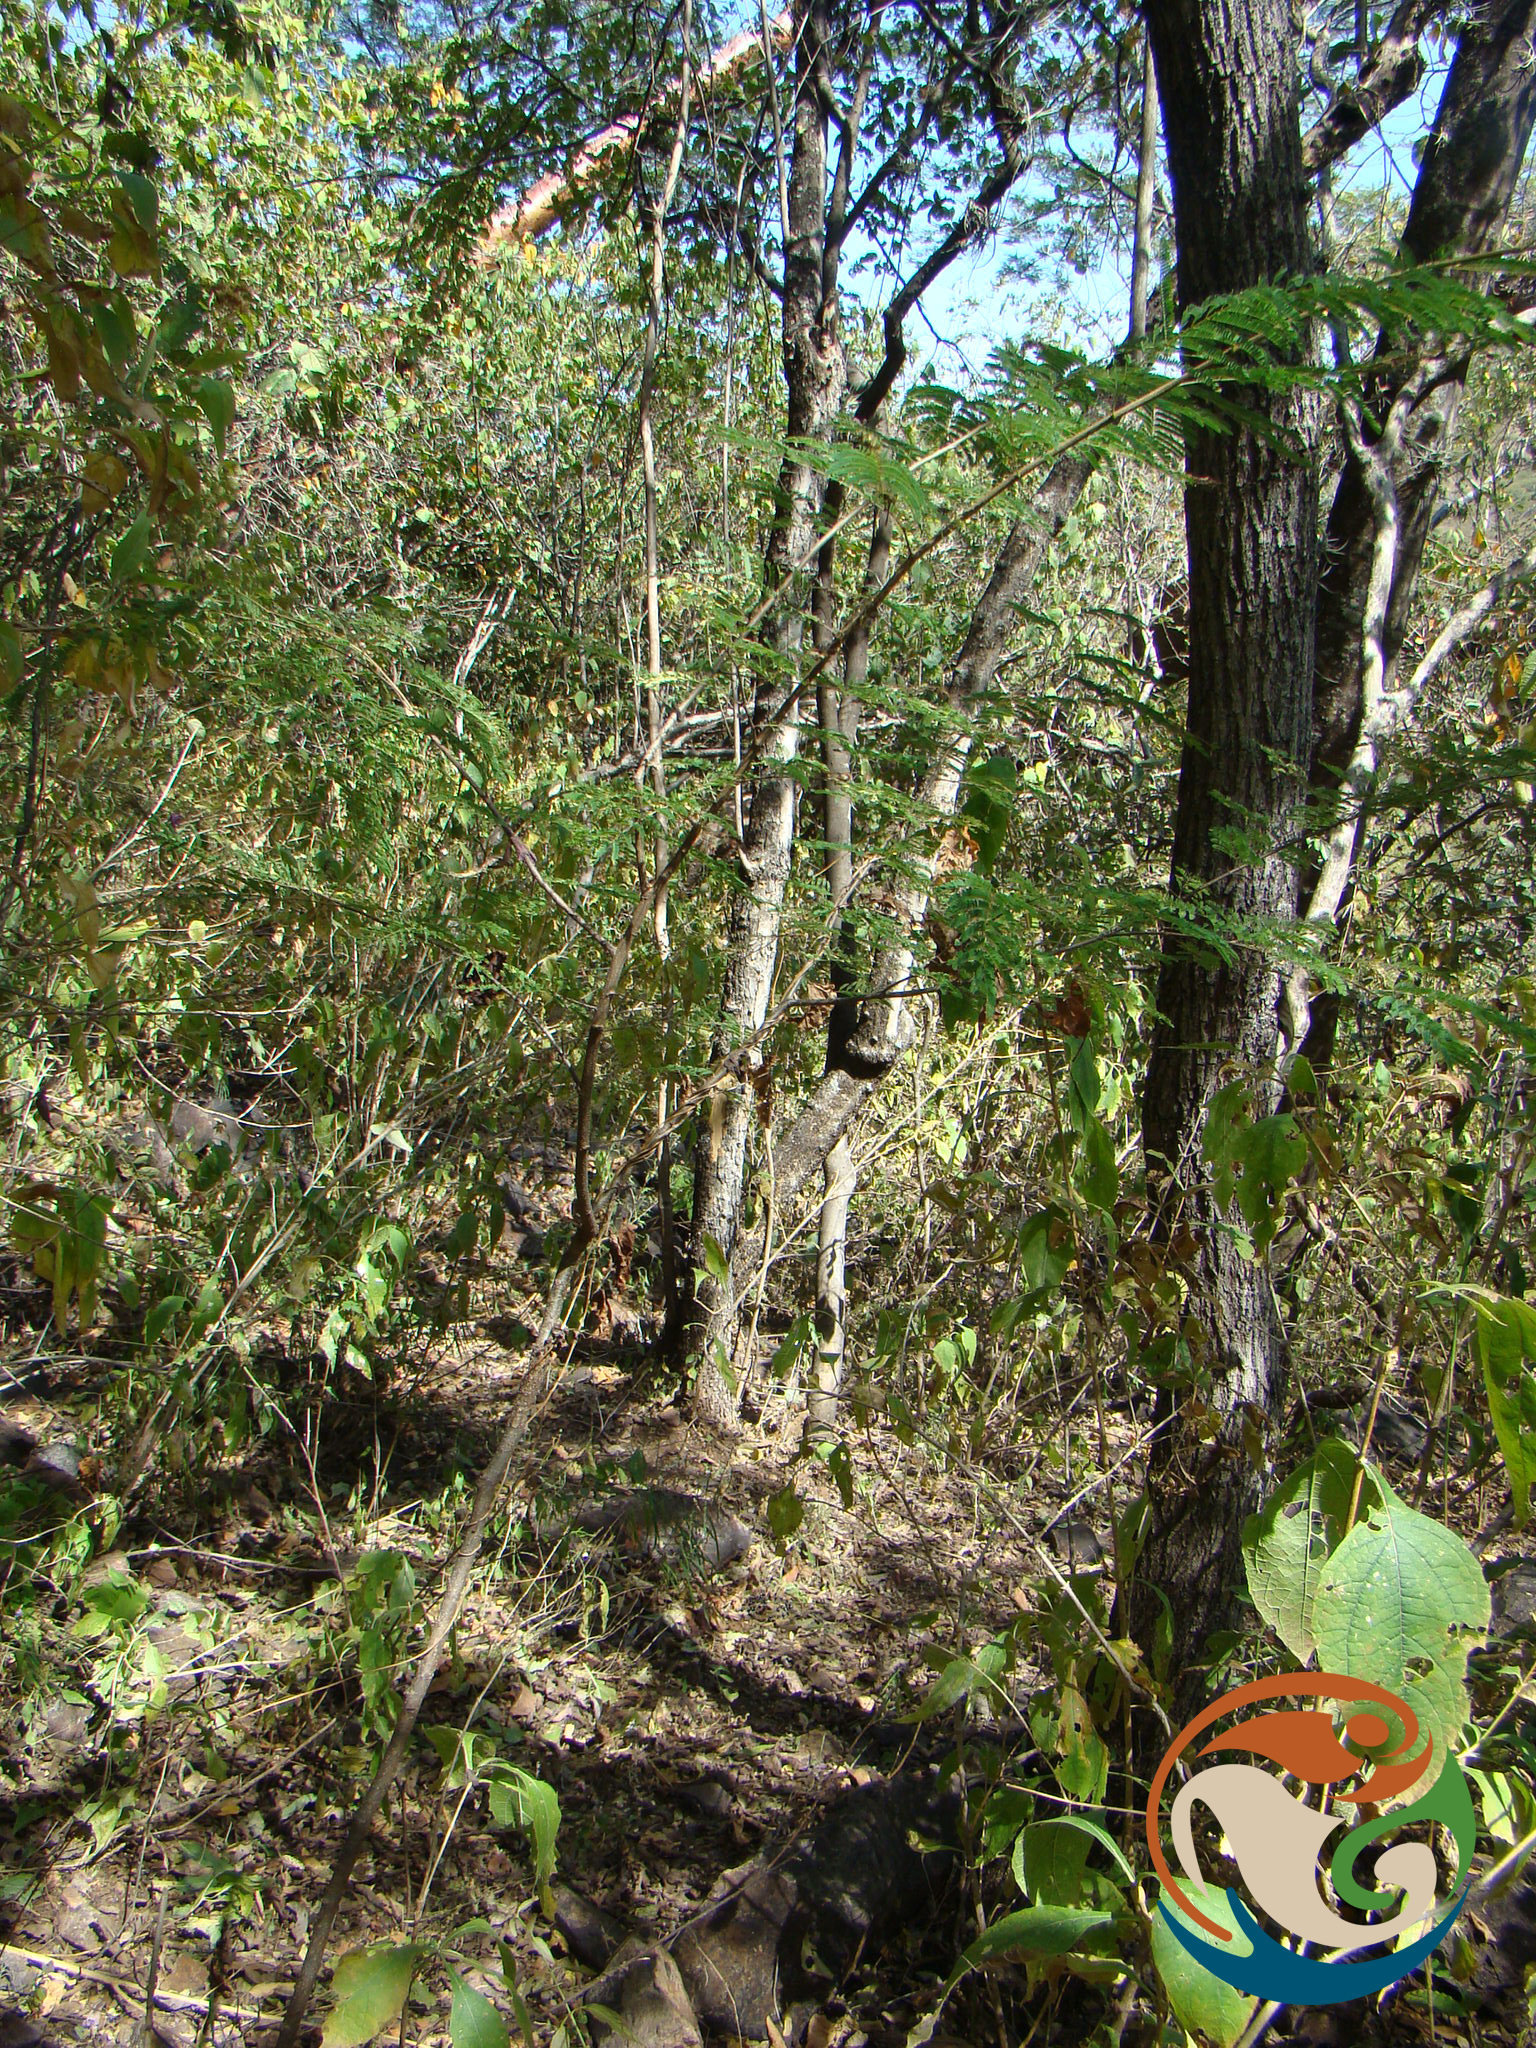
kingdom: Plantae
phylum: Tracheophyta
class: Magnoliopsida
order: Fabales
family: Fabaceae
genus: Lysiloma
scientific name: Lysiloma divaricatum
